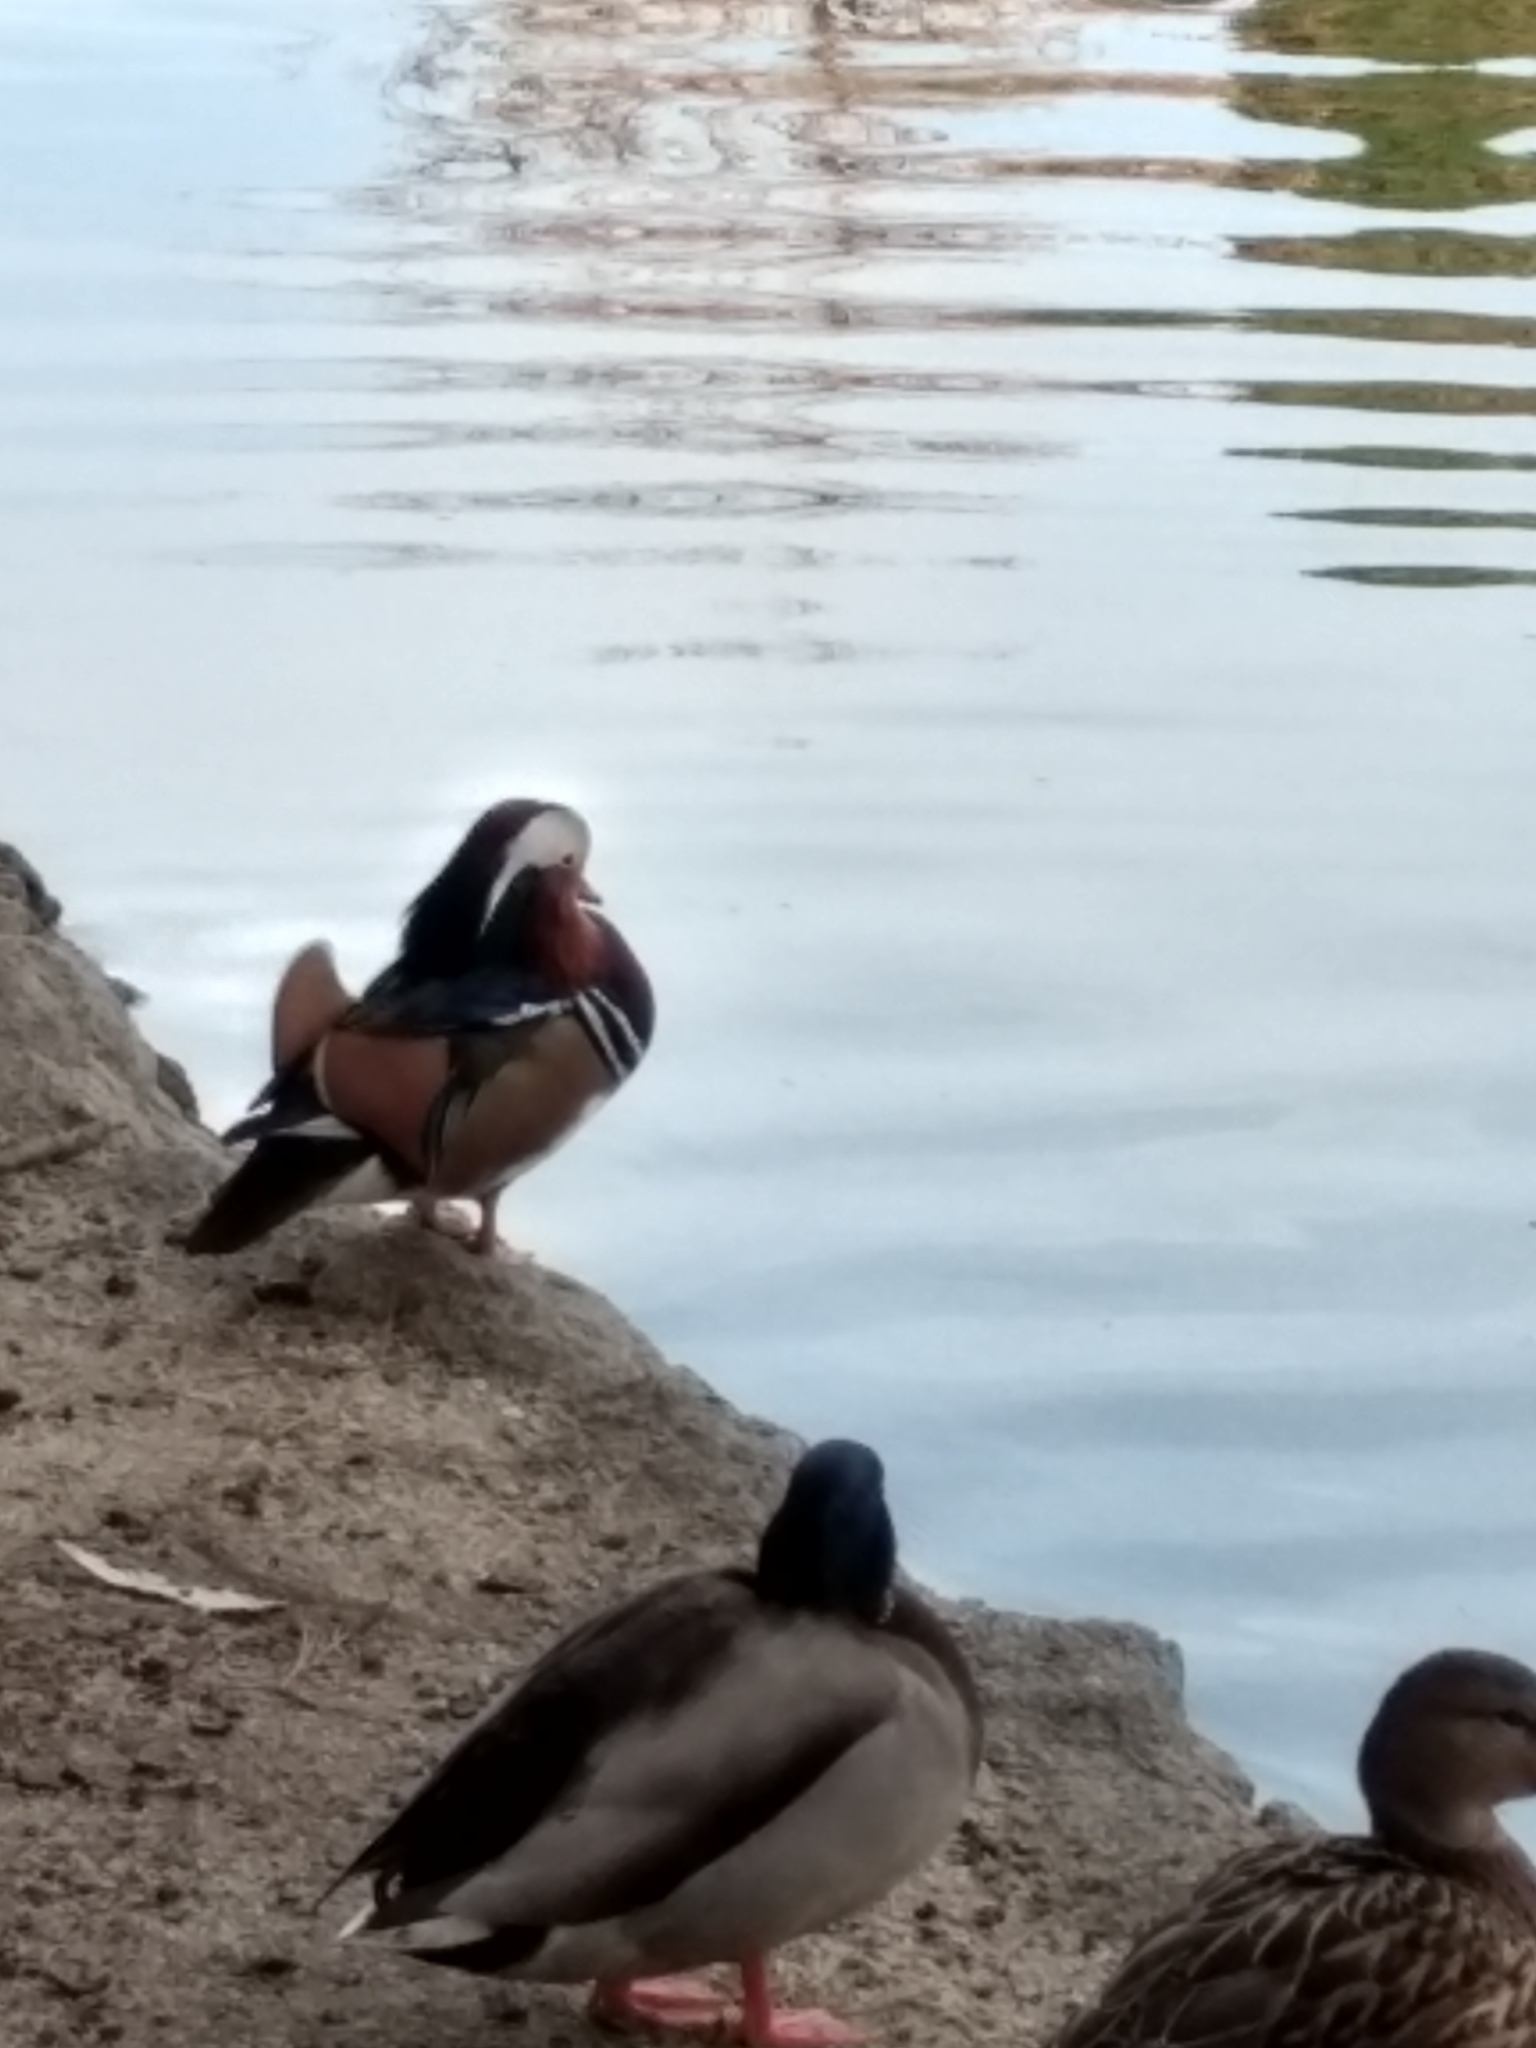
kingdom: Animalia
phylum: Chordata
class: Aves
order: Anseriformes
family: Anatidae
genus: Aix
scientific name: Aix galericulata
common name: Mandarin duck
